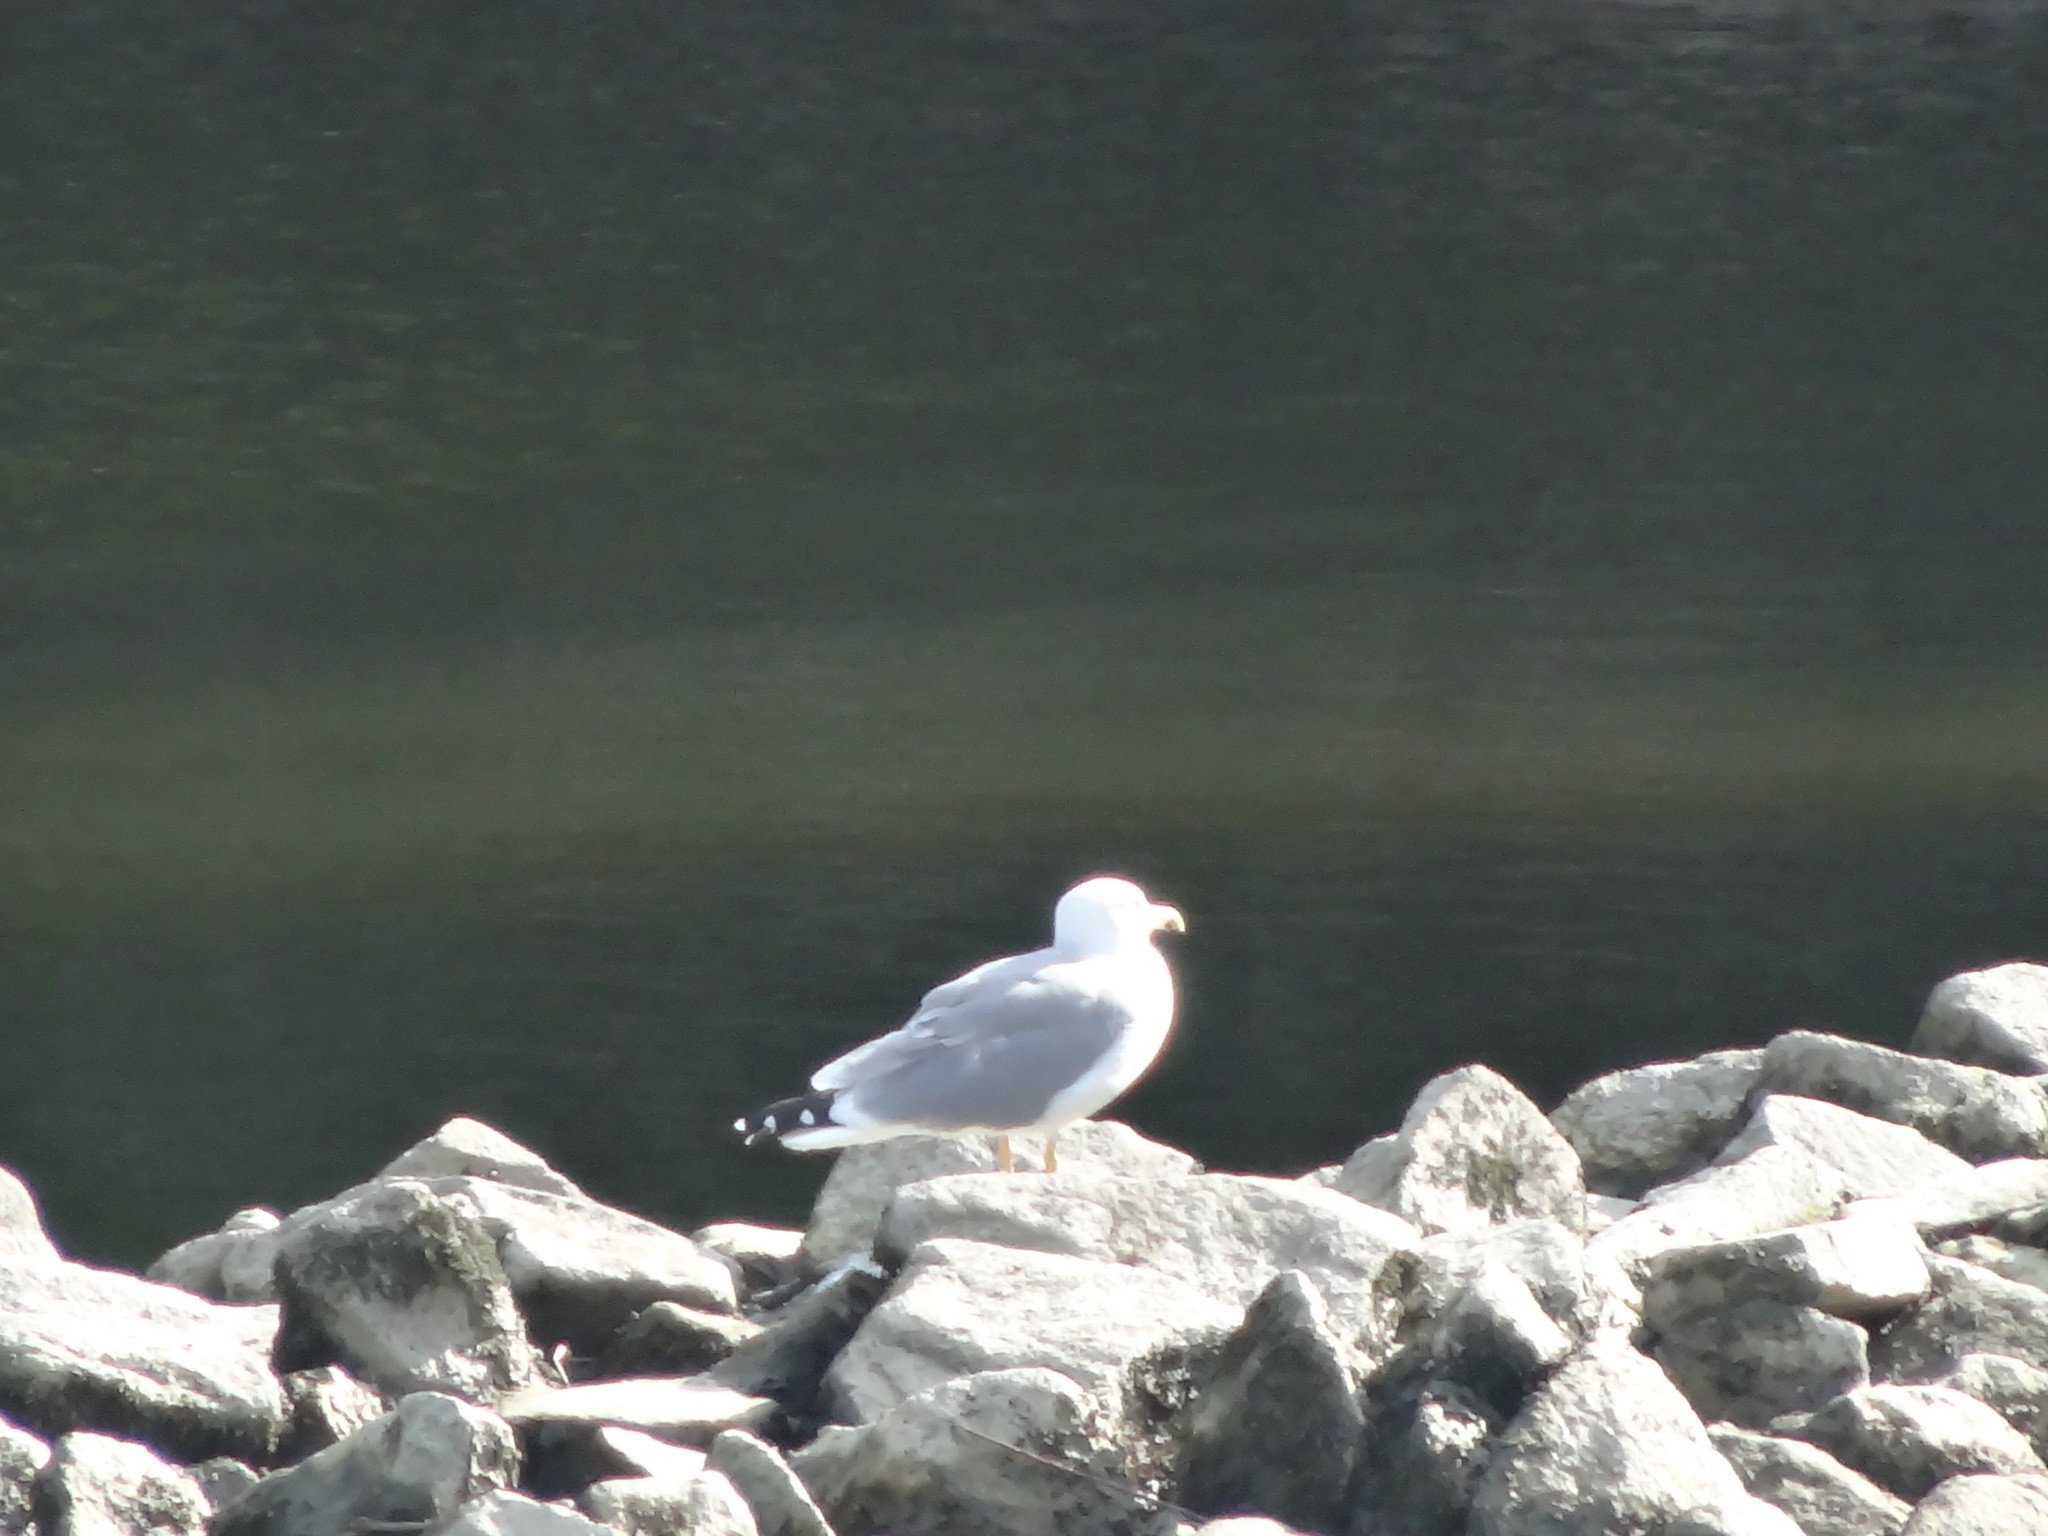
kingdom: Animalia
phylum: Chordata
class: Aves
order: Charadriiformes
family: Laridae
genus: Larus
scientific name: Larus michahellis
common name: Yellow-legged gull
